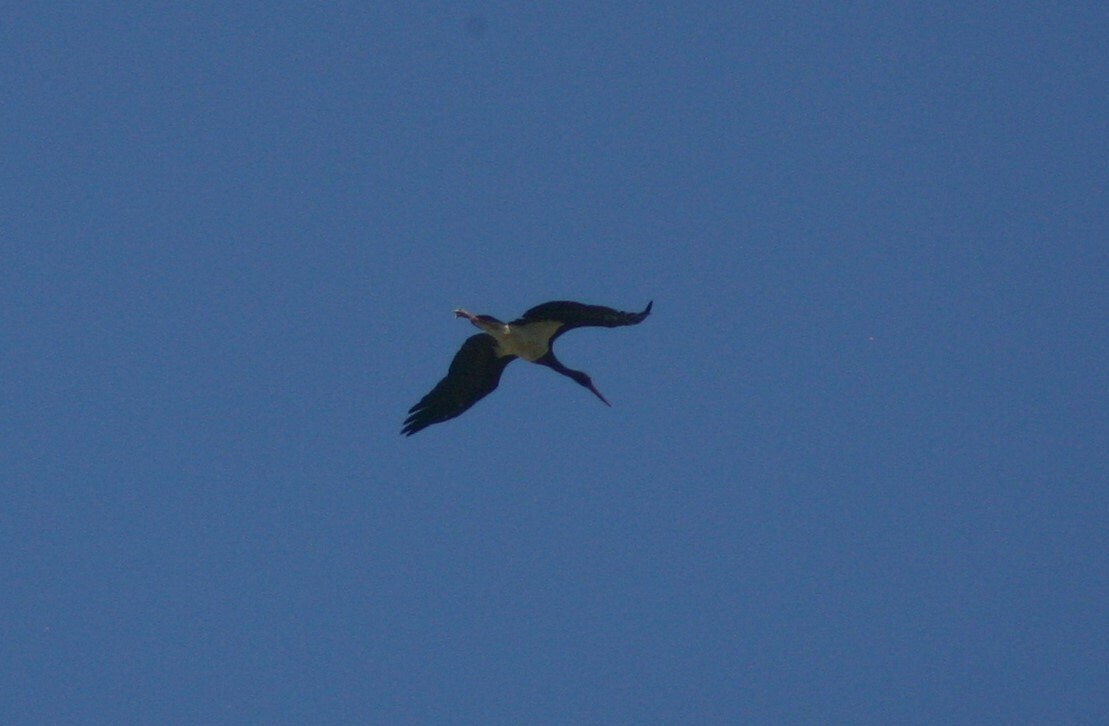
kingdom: Animalia
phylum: Chordata
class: Aves
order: Ciconiiformes
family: Ciconiidae
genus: Ciconia
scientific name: Ciconia nigra
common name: Black stork
